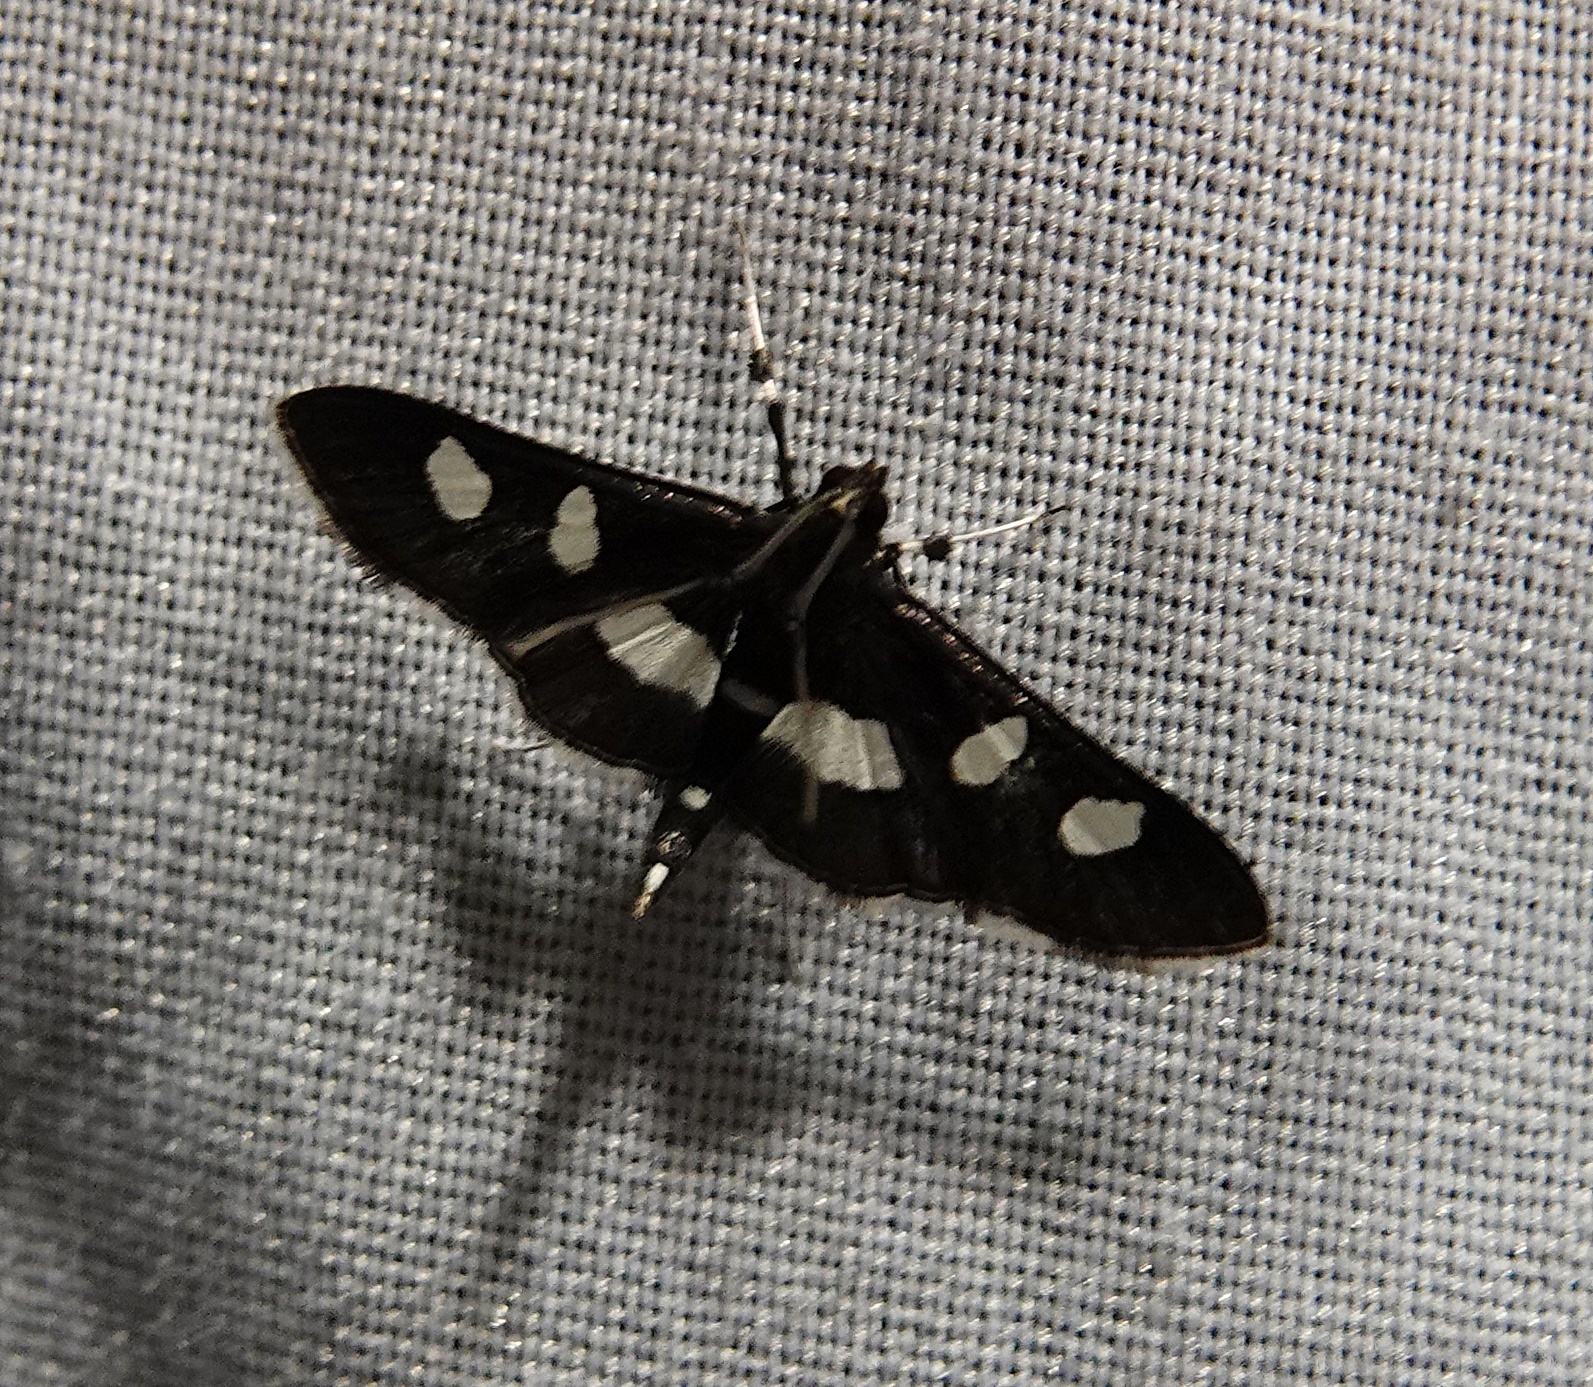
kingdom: Animalia
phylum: Arthropoda
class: Insecta
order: Lepidoptera
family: Crambidae
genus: Desmia
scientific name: Desmia
